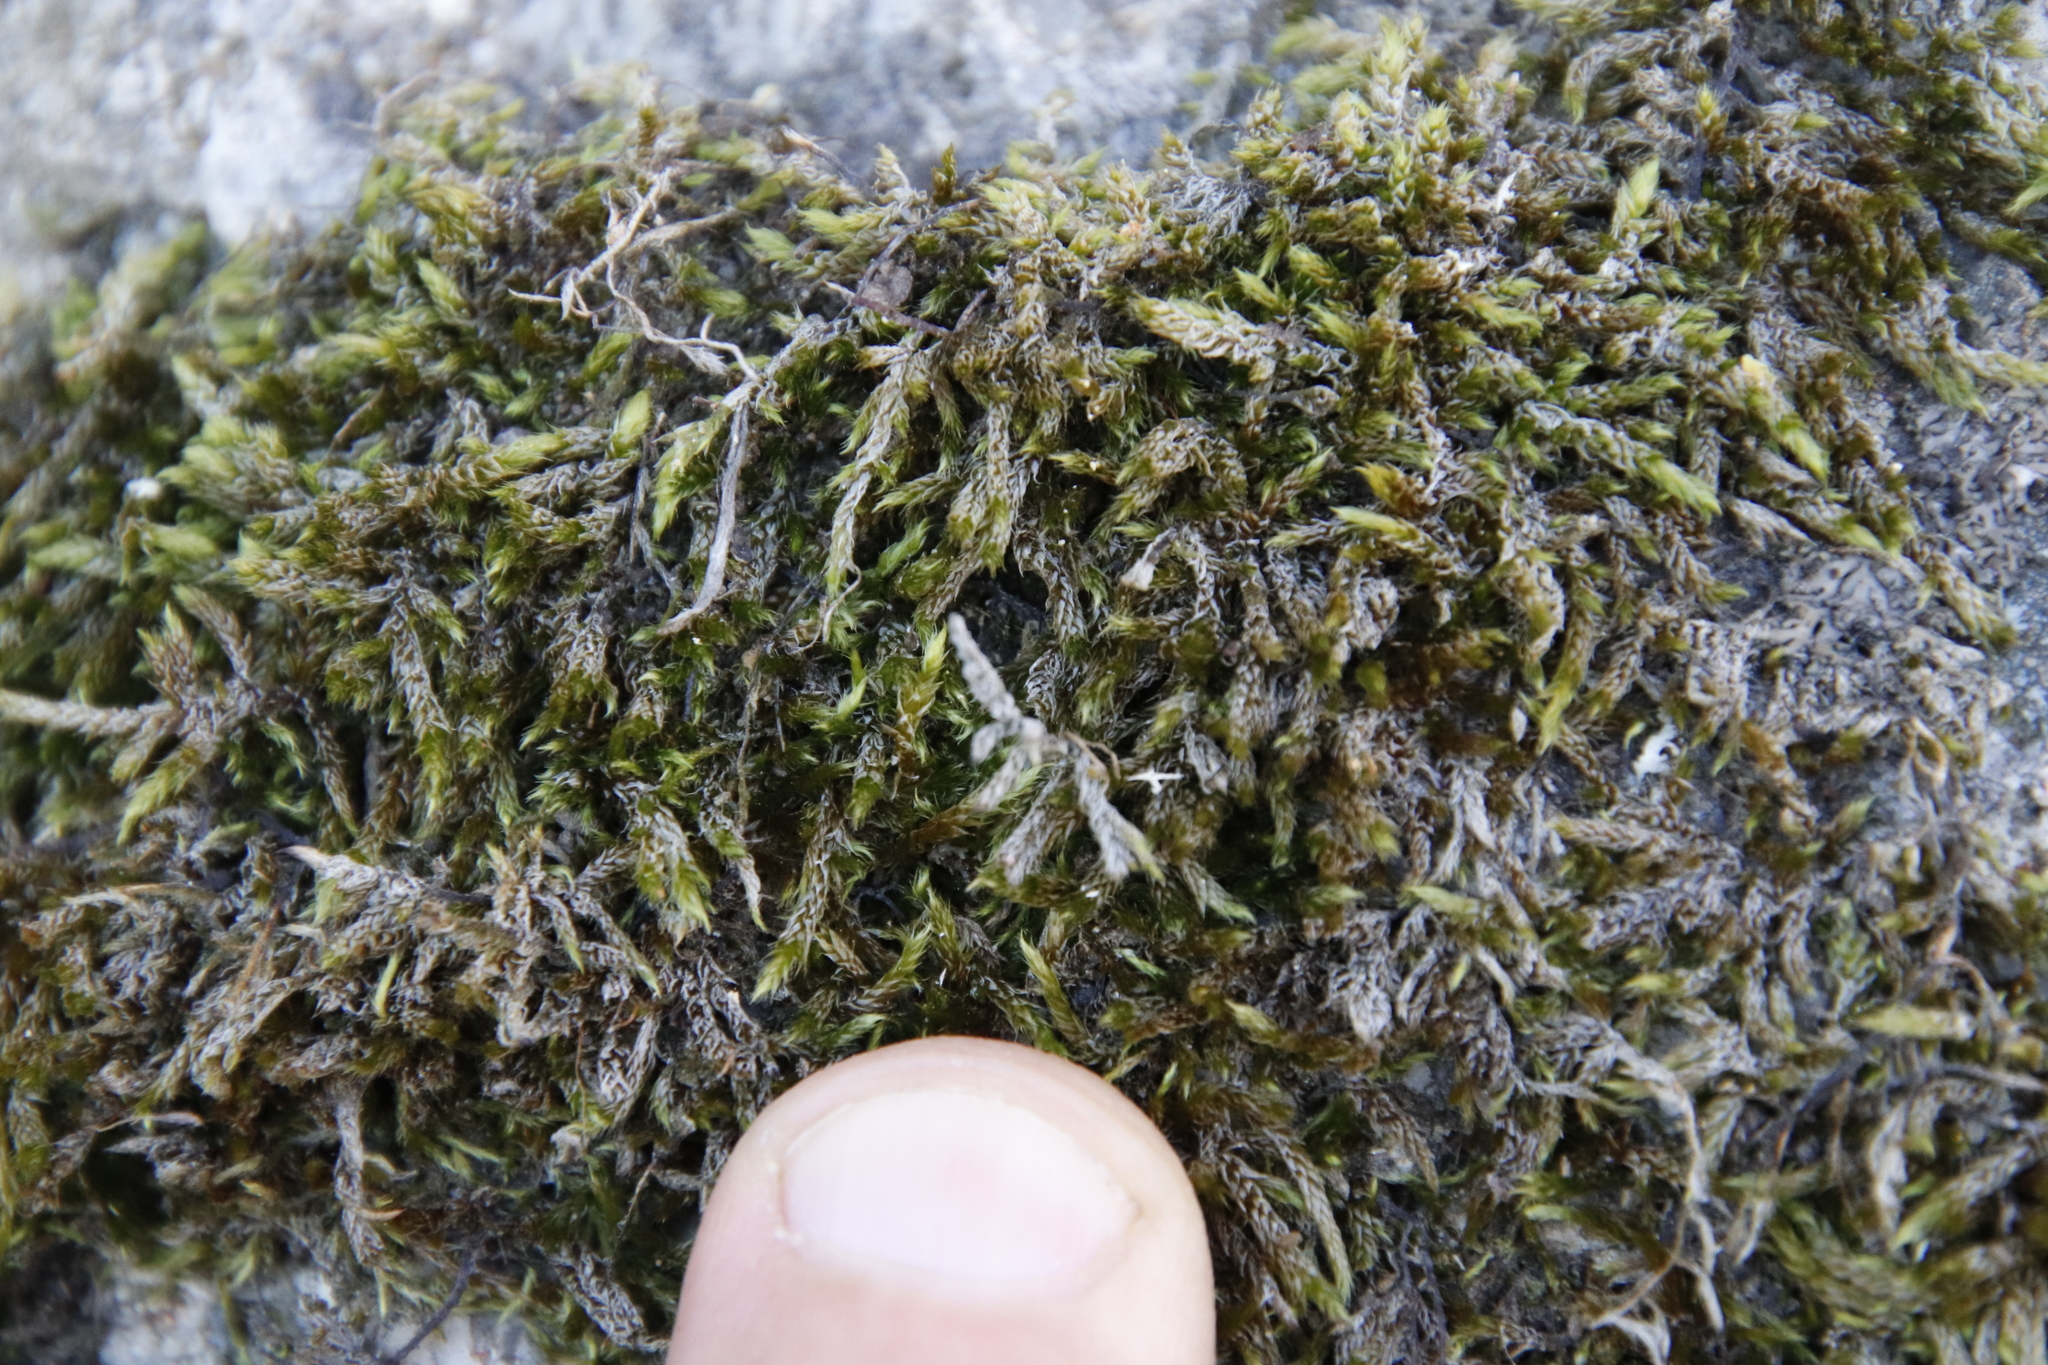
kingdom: Plantae
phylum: Bryophyta
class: Bryopsida
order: Hypnales
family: Hypnaceae
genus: Hypnum
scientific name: Hypnum cupressiforme
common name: Cypress-leaved plait-moss
